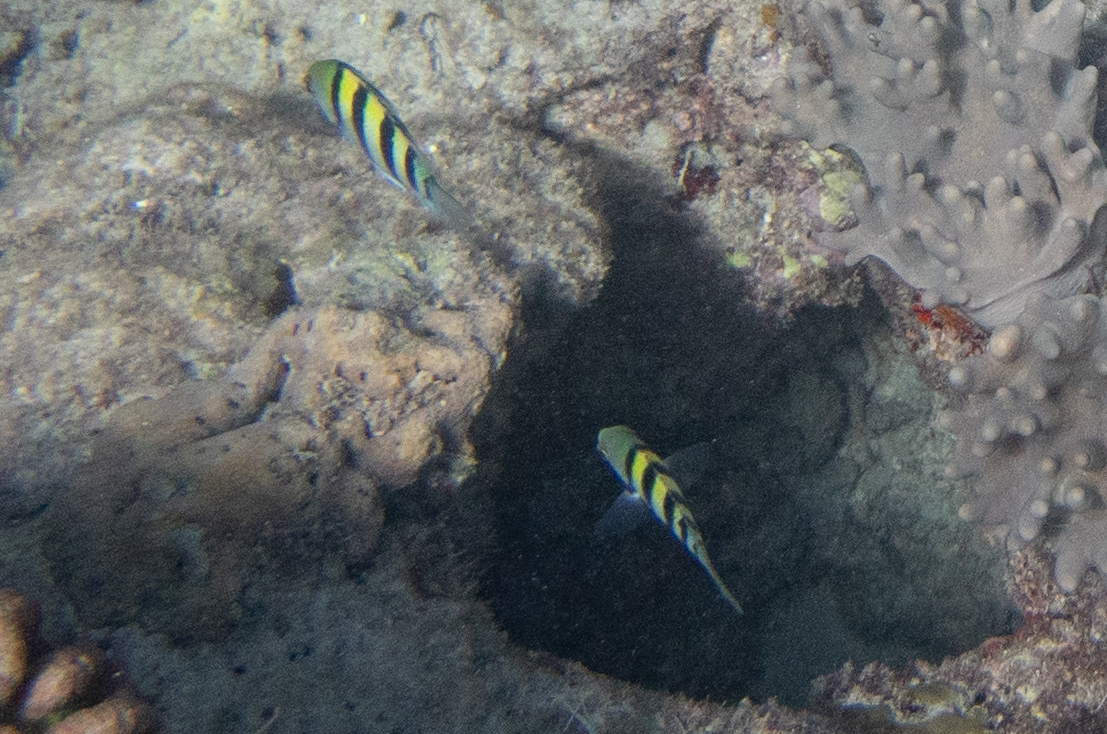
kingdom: Animalia
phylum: Chordata
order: Perciformes
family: Pomacentridae
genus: Abudefduf
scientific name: Abudefduf vaigiensis
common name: Indo-pacific sergeant
